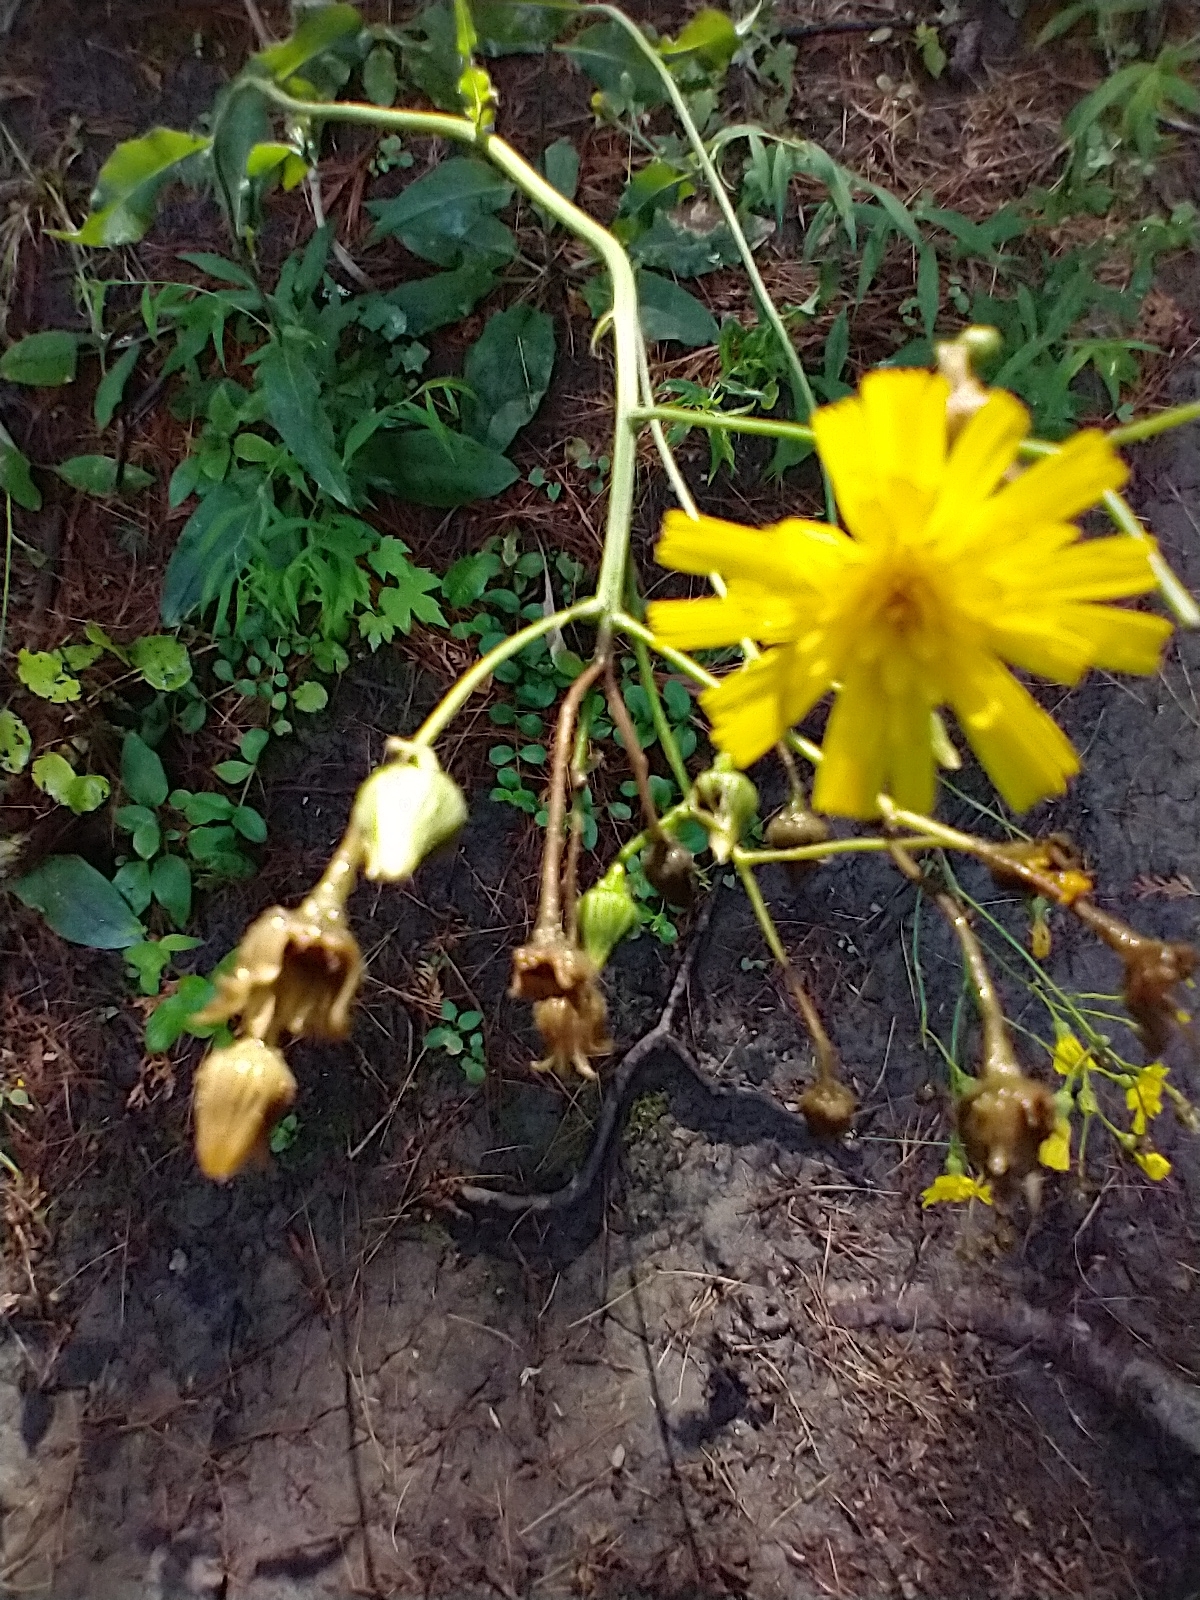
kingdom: Plantae
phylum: Tracheophyta
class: Magnoliopsida
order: Asterales
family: Asteraceae
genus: Hieracium
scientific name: Hieracium lachenalii
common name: Common hawkweed
